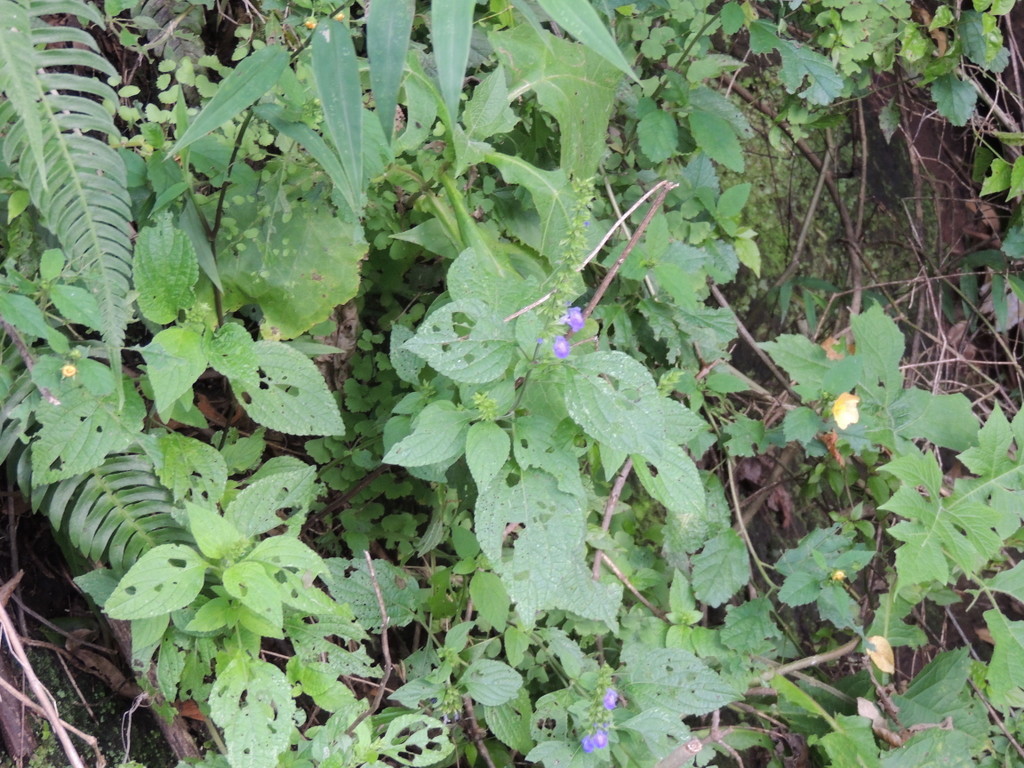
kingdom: Plantae
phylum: Tracheophyta
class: Magnoliopsida
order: Malvales
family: Malvaceae
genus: Sida
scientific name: Sida rhombifolia
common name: Queensland-hemp
